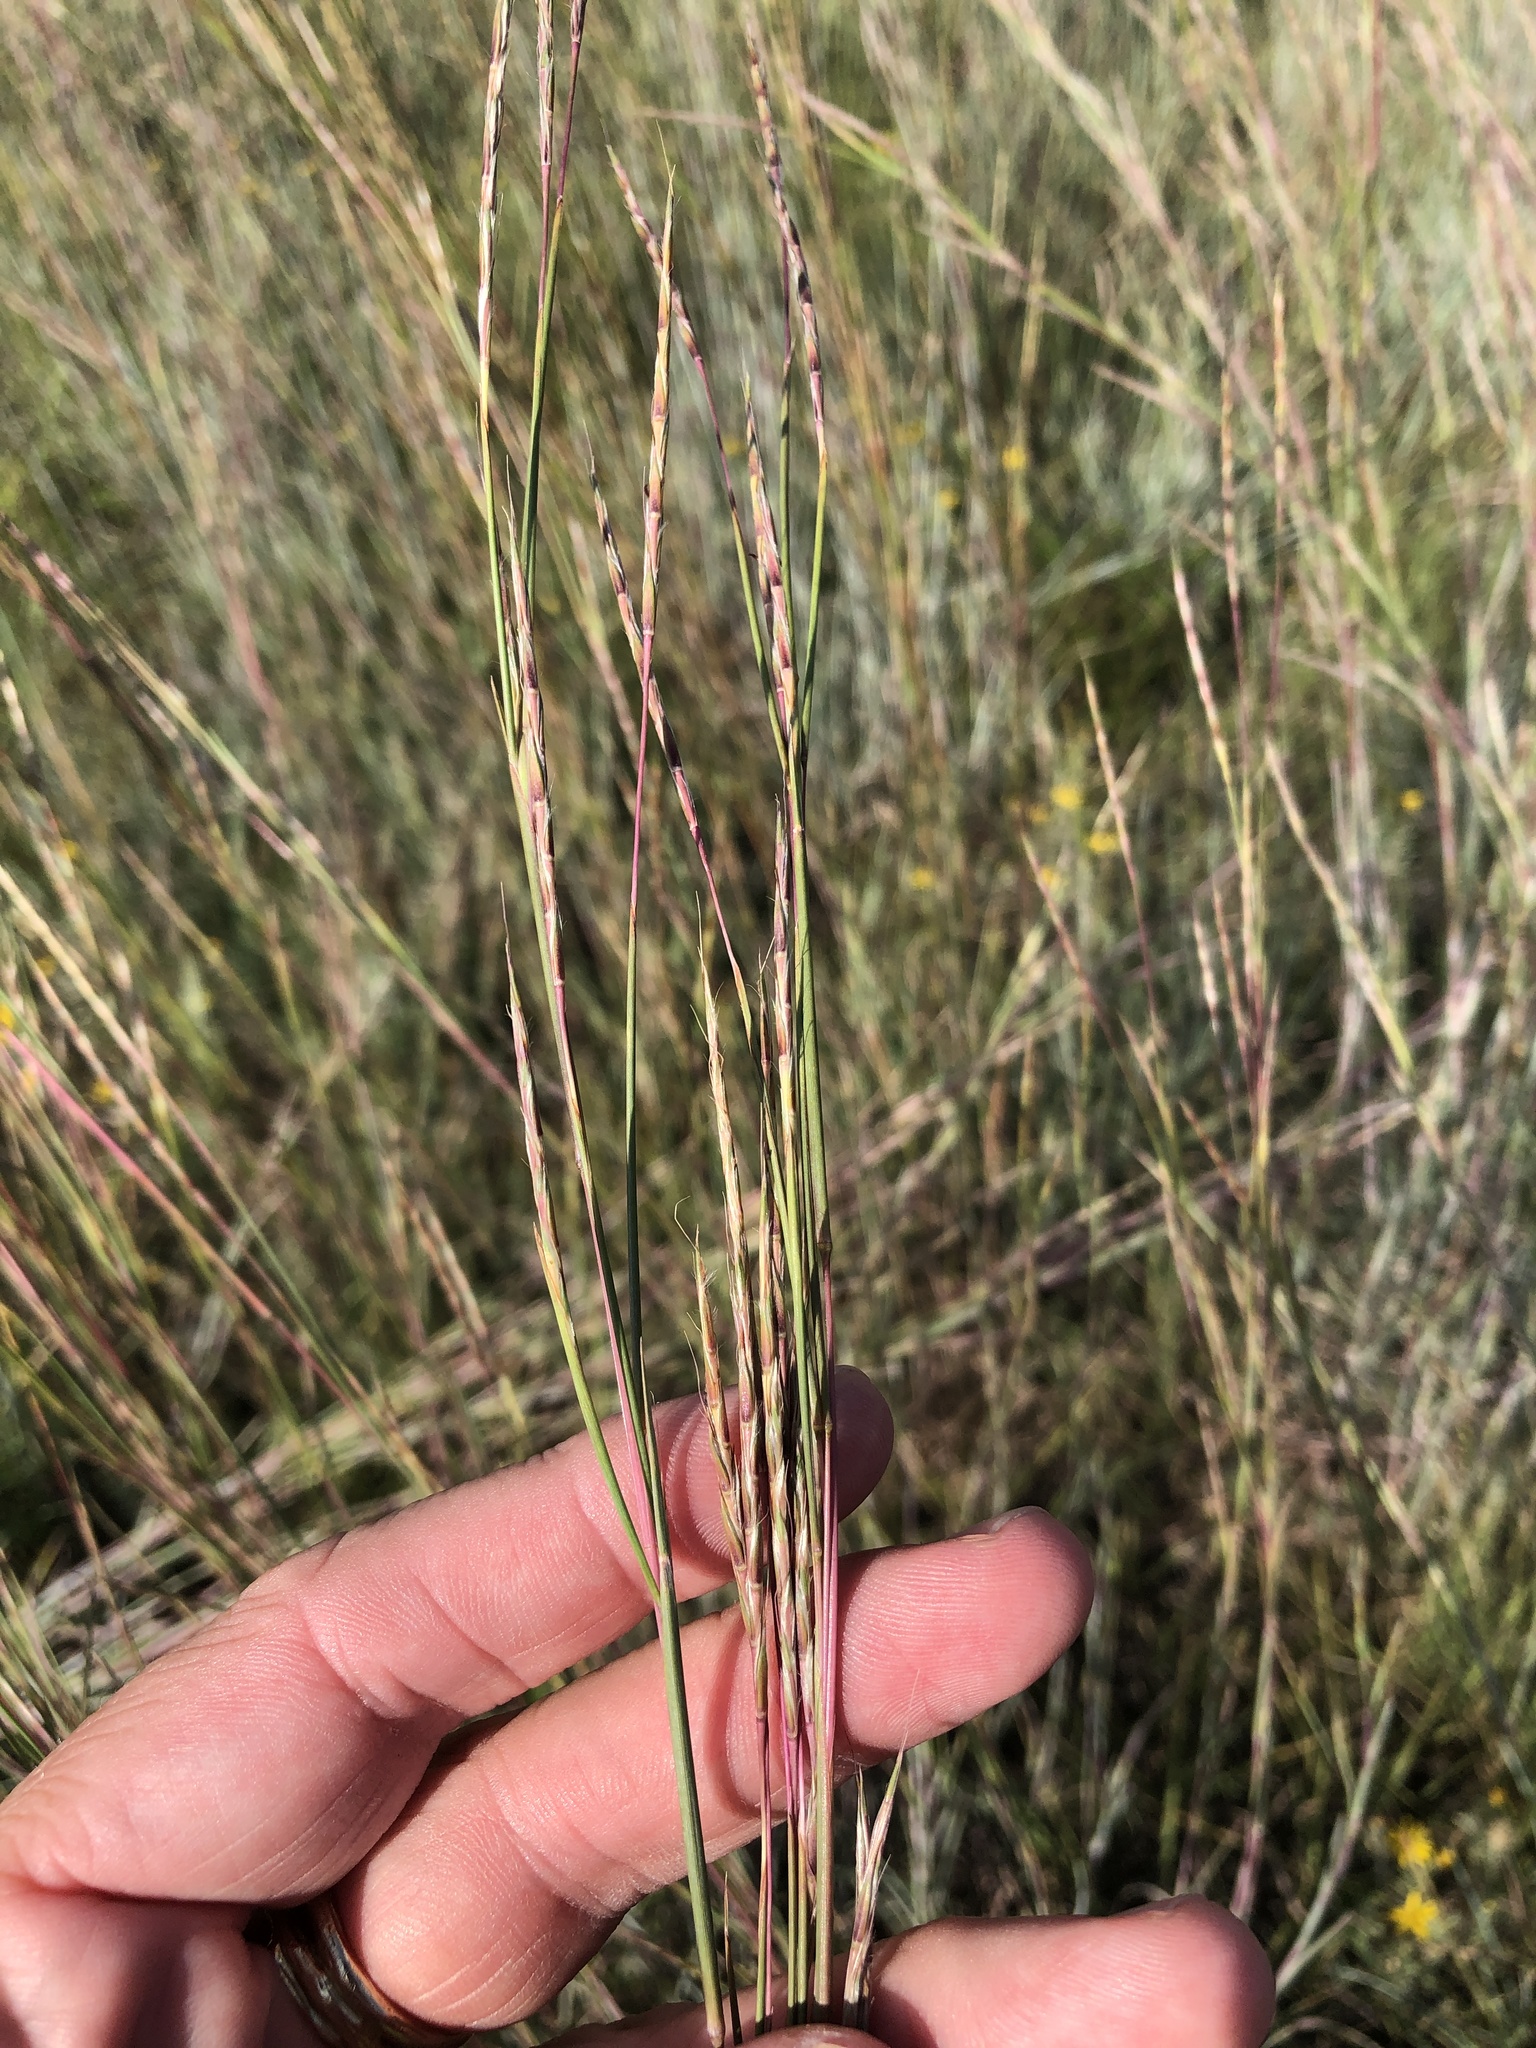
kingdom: Plantae
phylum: Tracheophyta
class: Liliopsida
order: Poales
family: Poaceae
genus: Schizachyrium
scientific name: Schizachyrium scoparium
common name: Little bluestem
